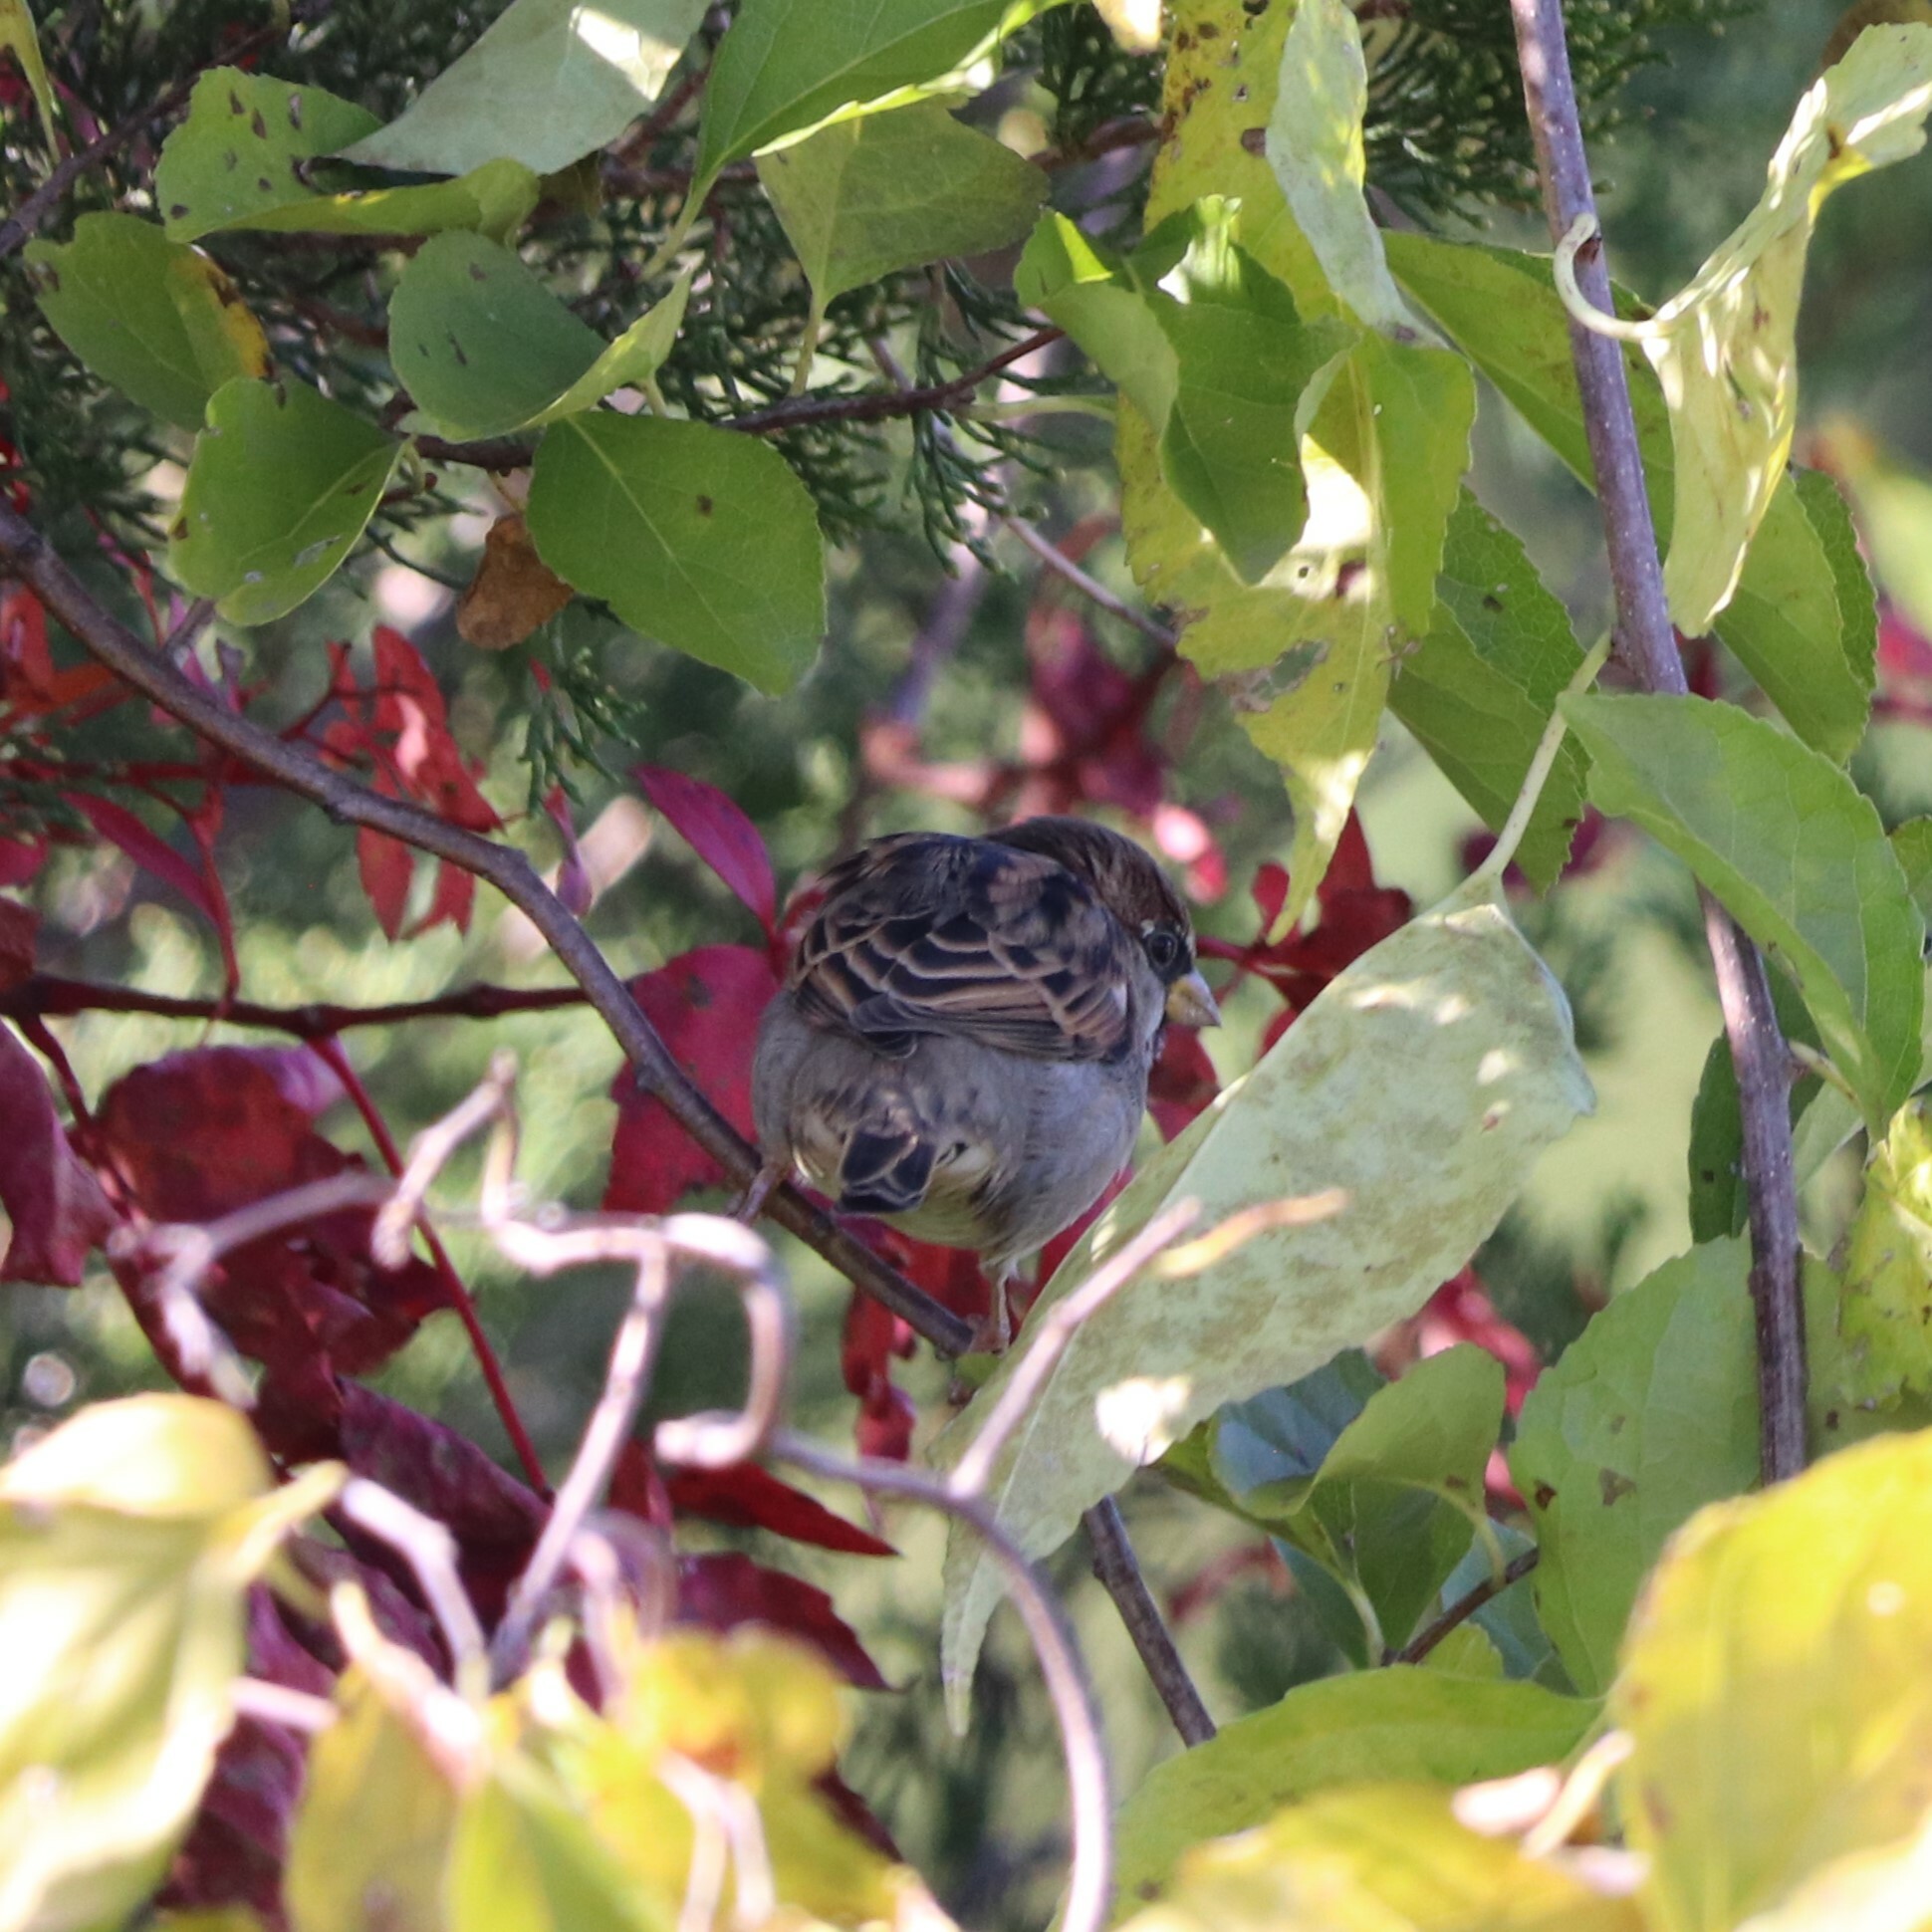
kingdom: Animalia
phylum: Chordata
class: Aves
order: Passeriformes
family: Passeridae
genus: Passer
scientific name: Passer domesticus
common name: House sparrow
